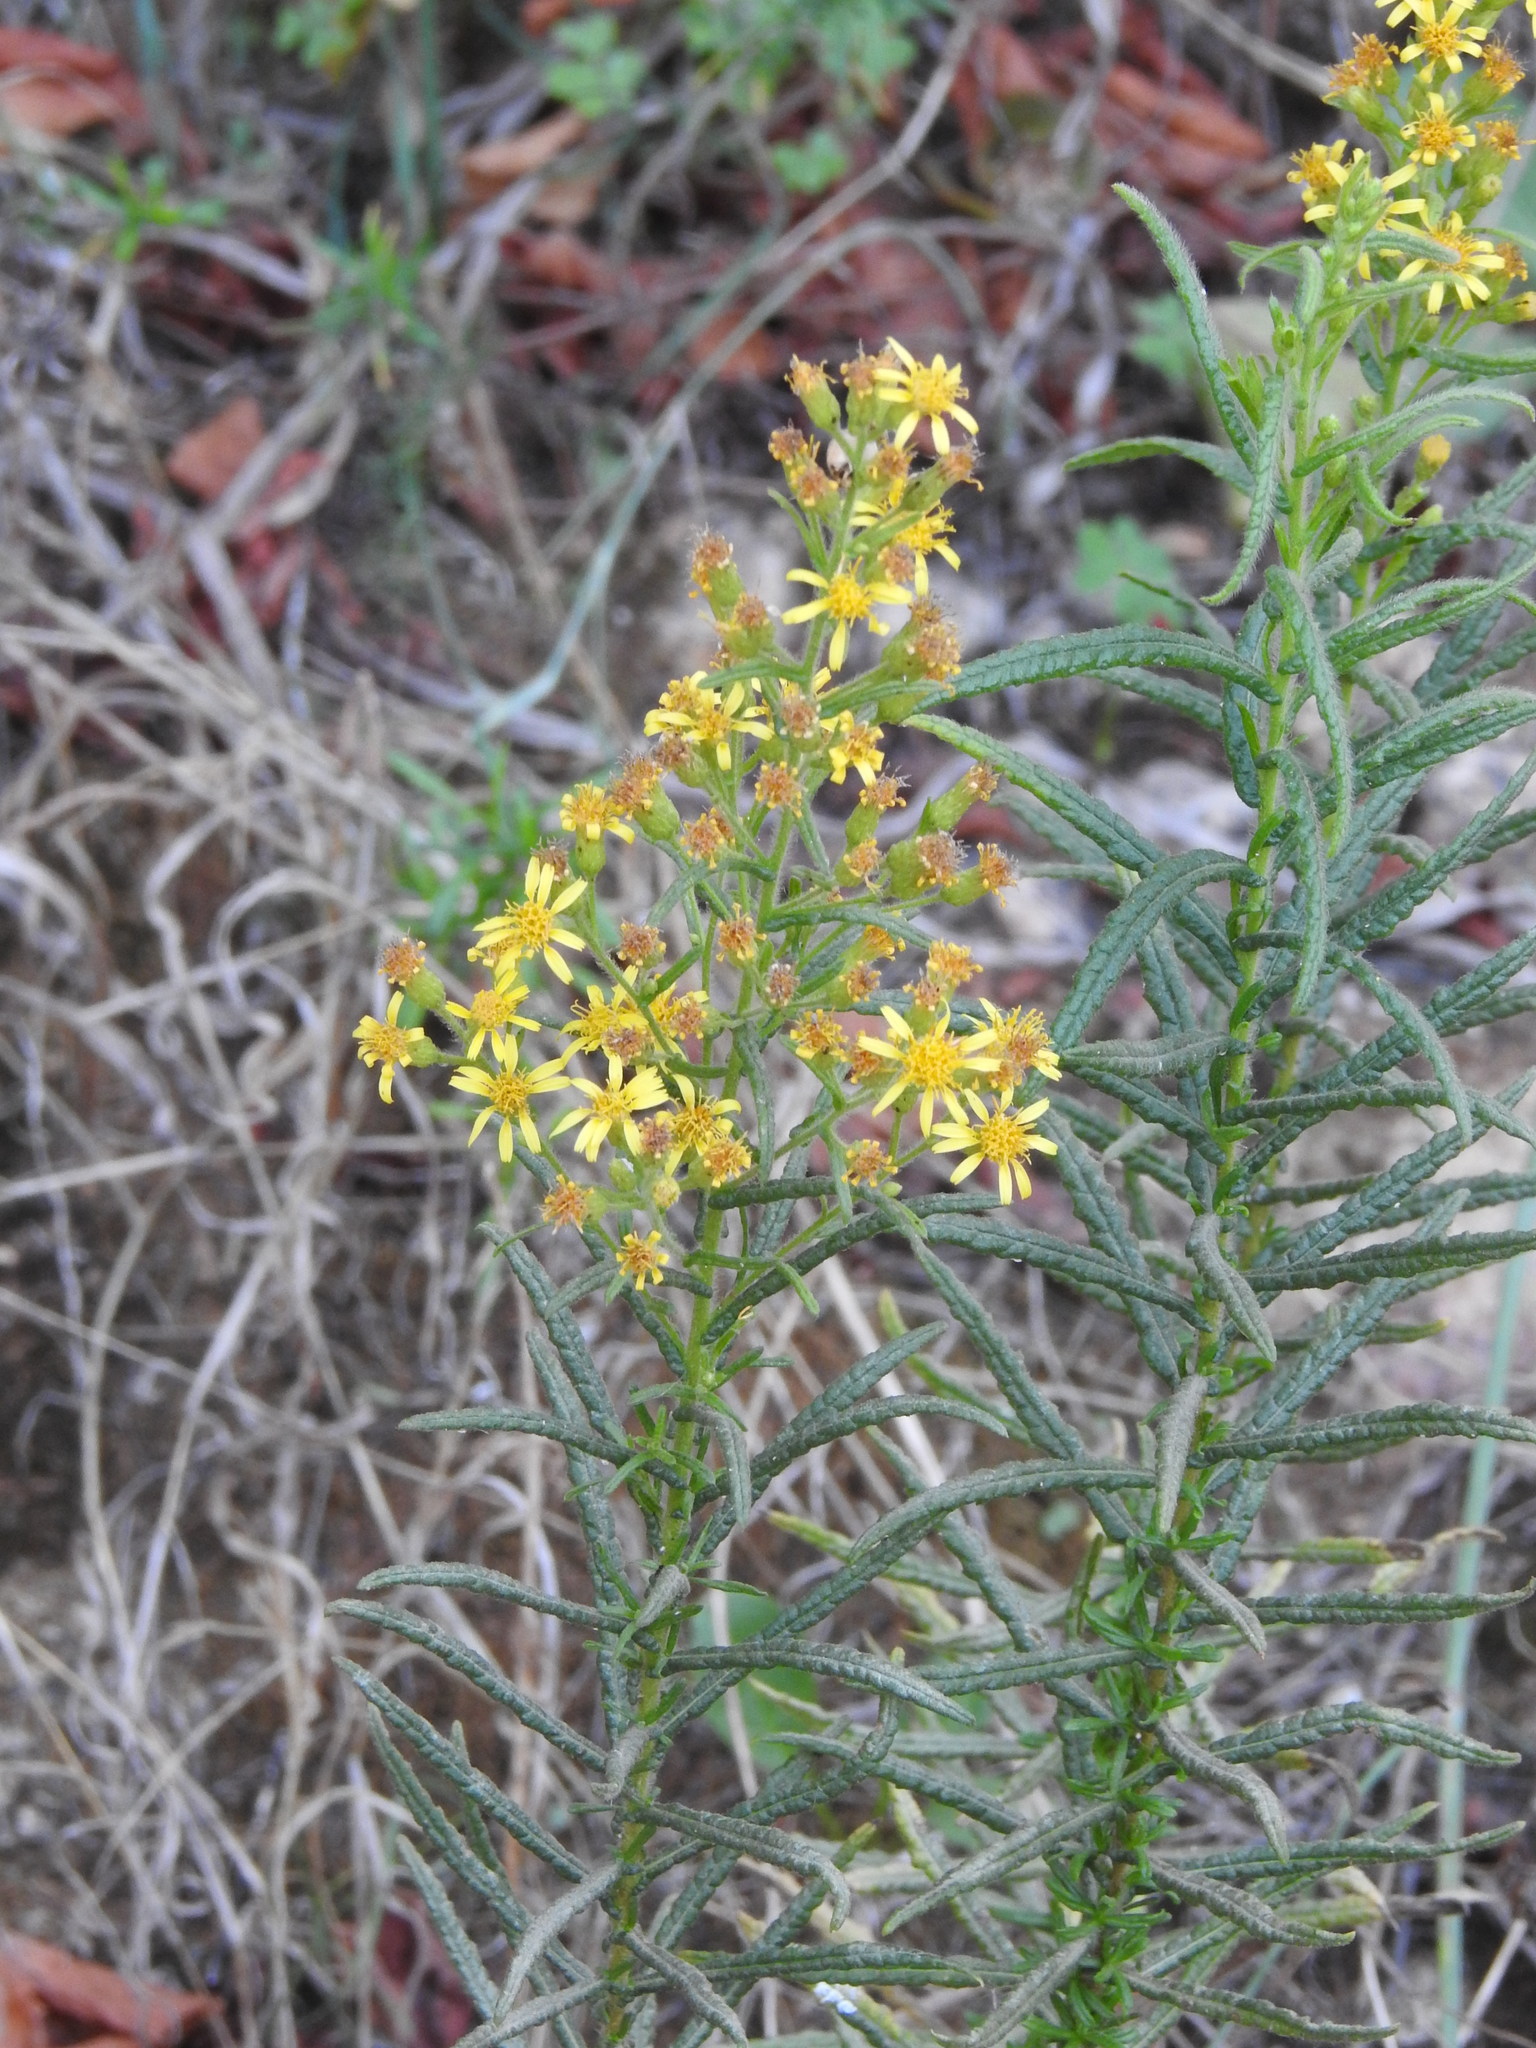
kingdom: Plantae
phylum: Tracheophyta
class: Magnoliopsida
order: Asterales
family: Asteraceae
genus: Dittrichia
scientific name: Dittrichia viscosa
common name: Woody fleabane
